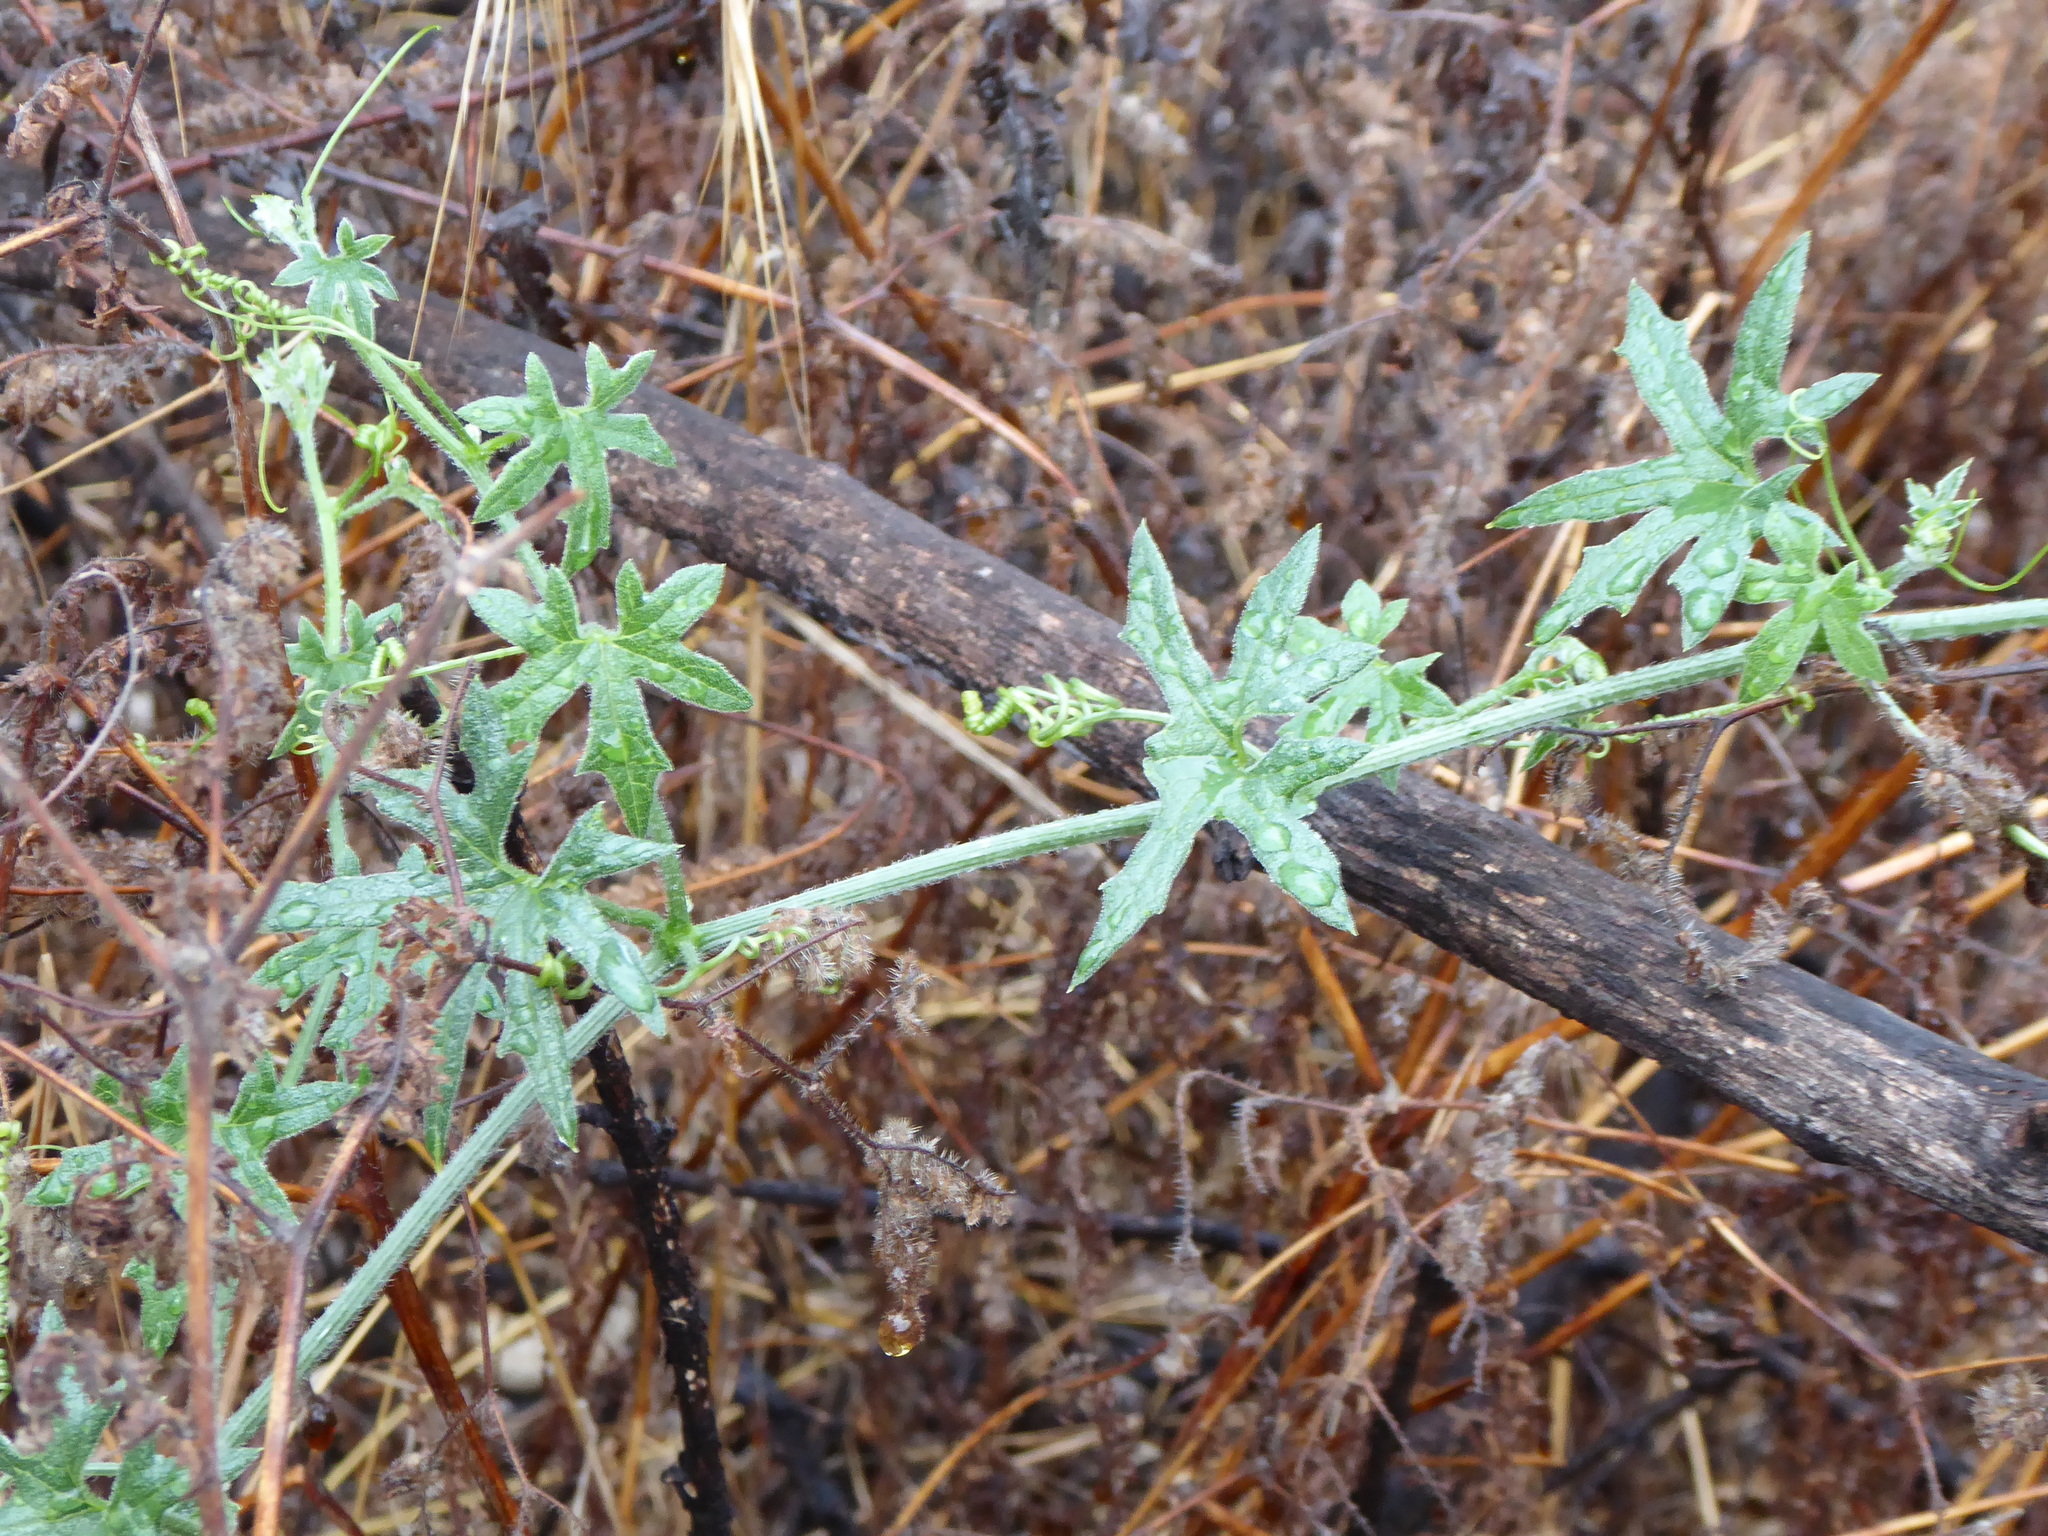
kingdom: Plantae
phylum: Tracheophyta
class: Magnoliopsida
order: Cucurbitales
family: Cucurbitaceae
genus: Marah
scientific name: Marah macrocarpa
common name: Cucamonga manroot
